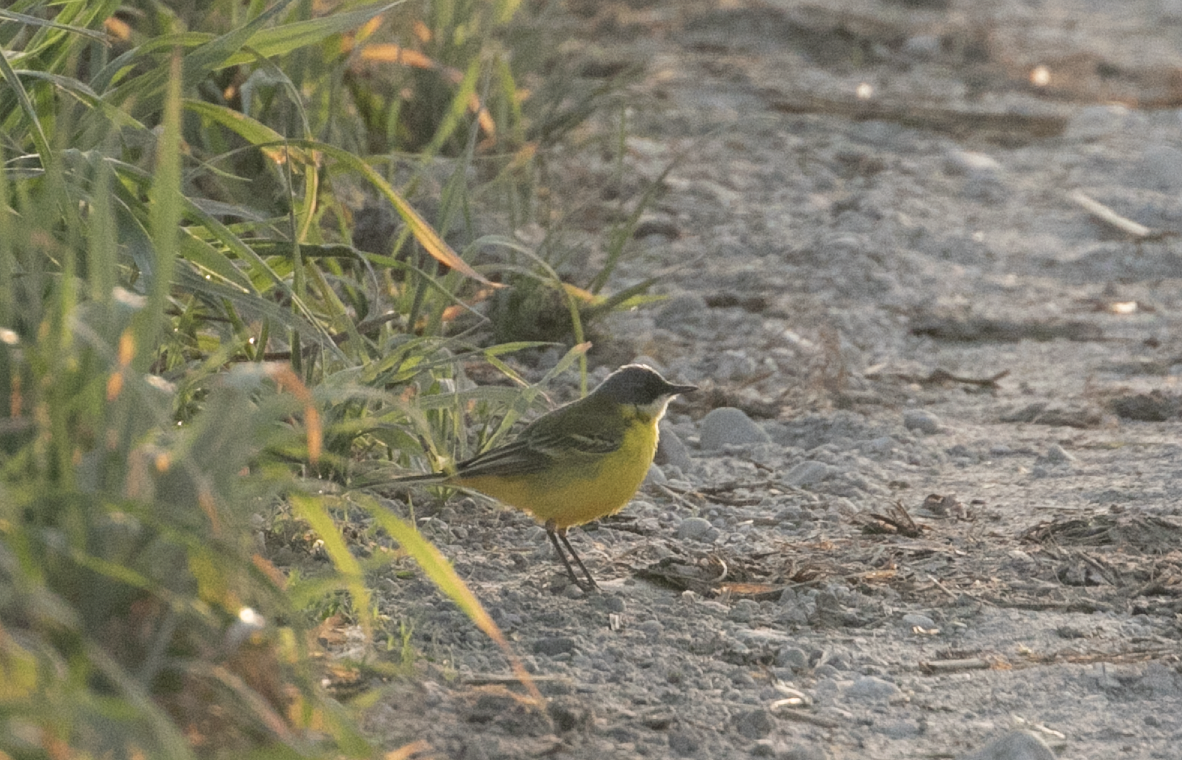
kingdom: Animalia
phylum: Chordata
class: Aves
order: Passeriformes
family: Motacillidae
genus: Motacilla
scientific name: Motacilla flava
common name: Western yellow wagtail
